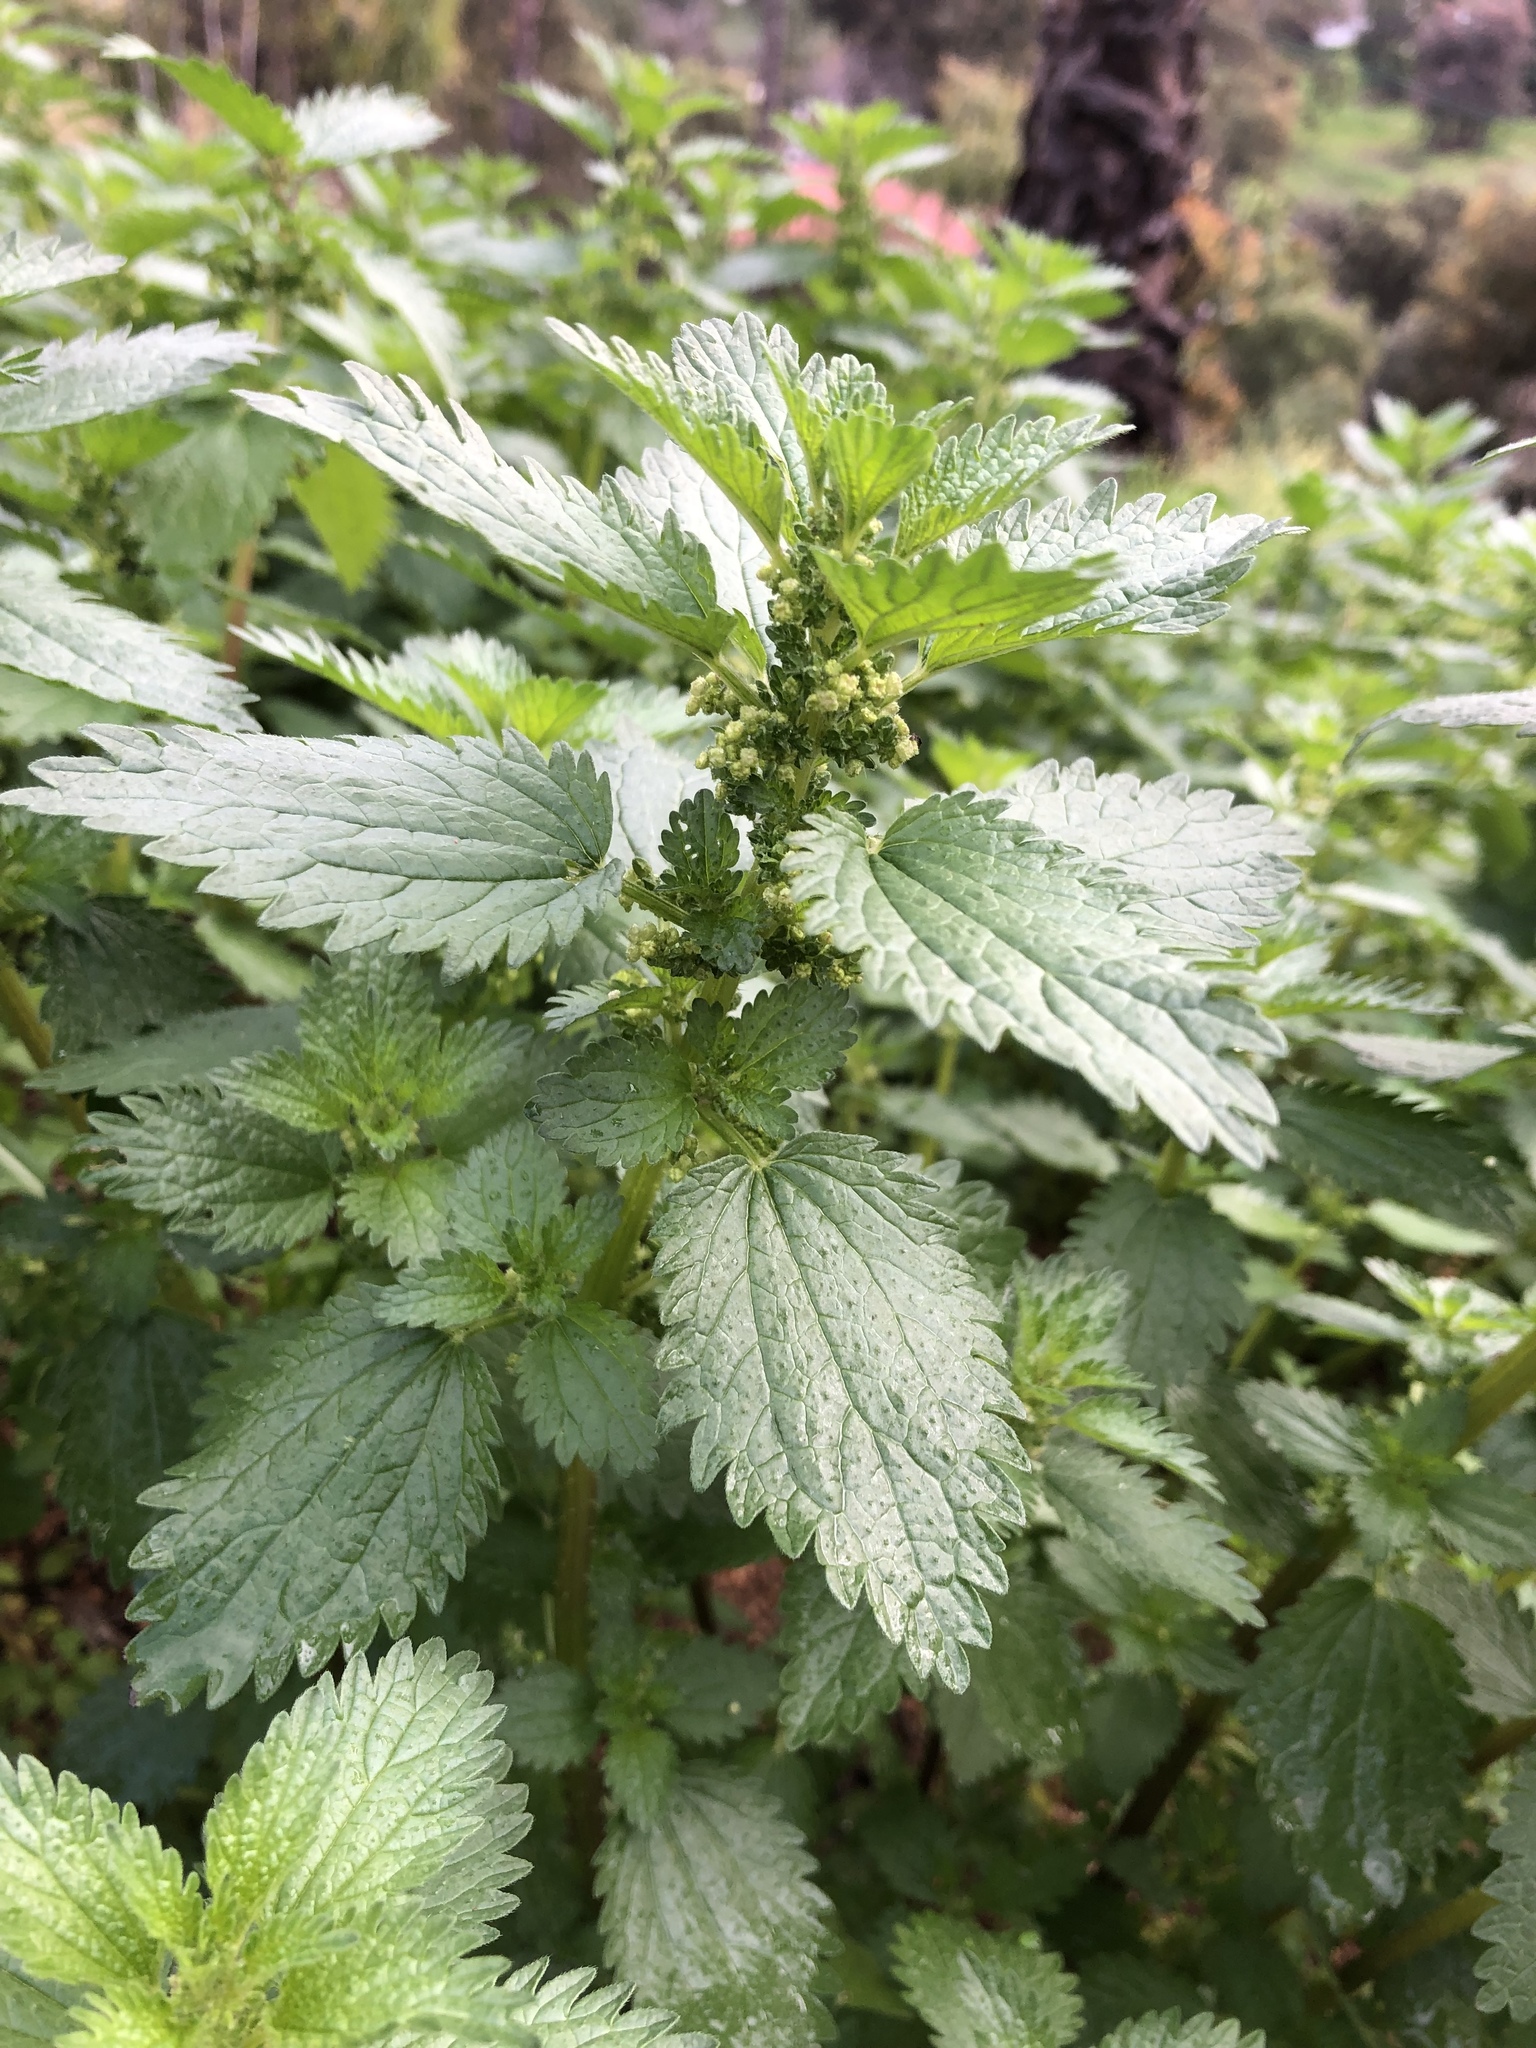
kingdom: Plantae
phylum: Tracheophyta
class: Magnoliopsida
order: Rosales
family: Urticaceae
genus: Urtica
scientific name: Urtica urens
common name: Dwarf nettle
